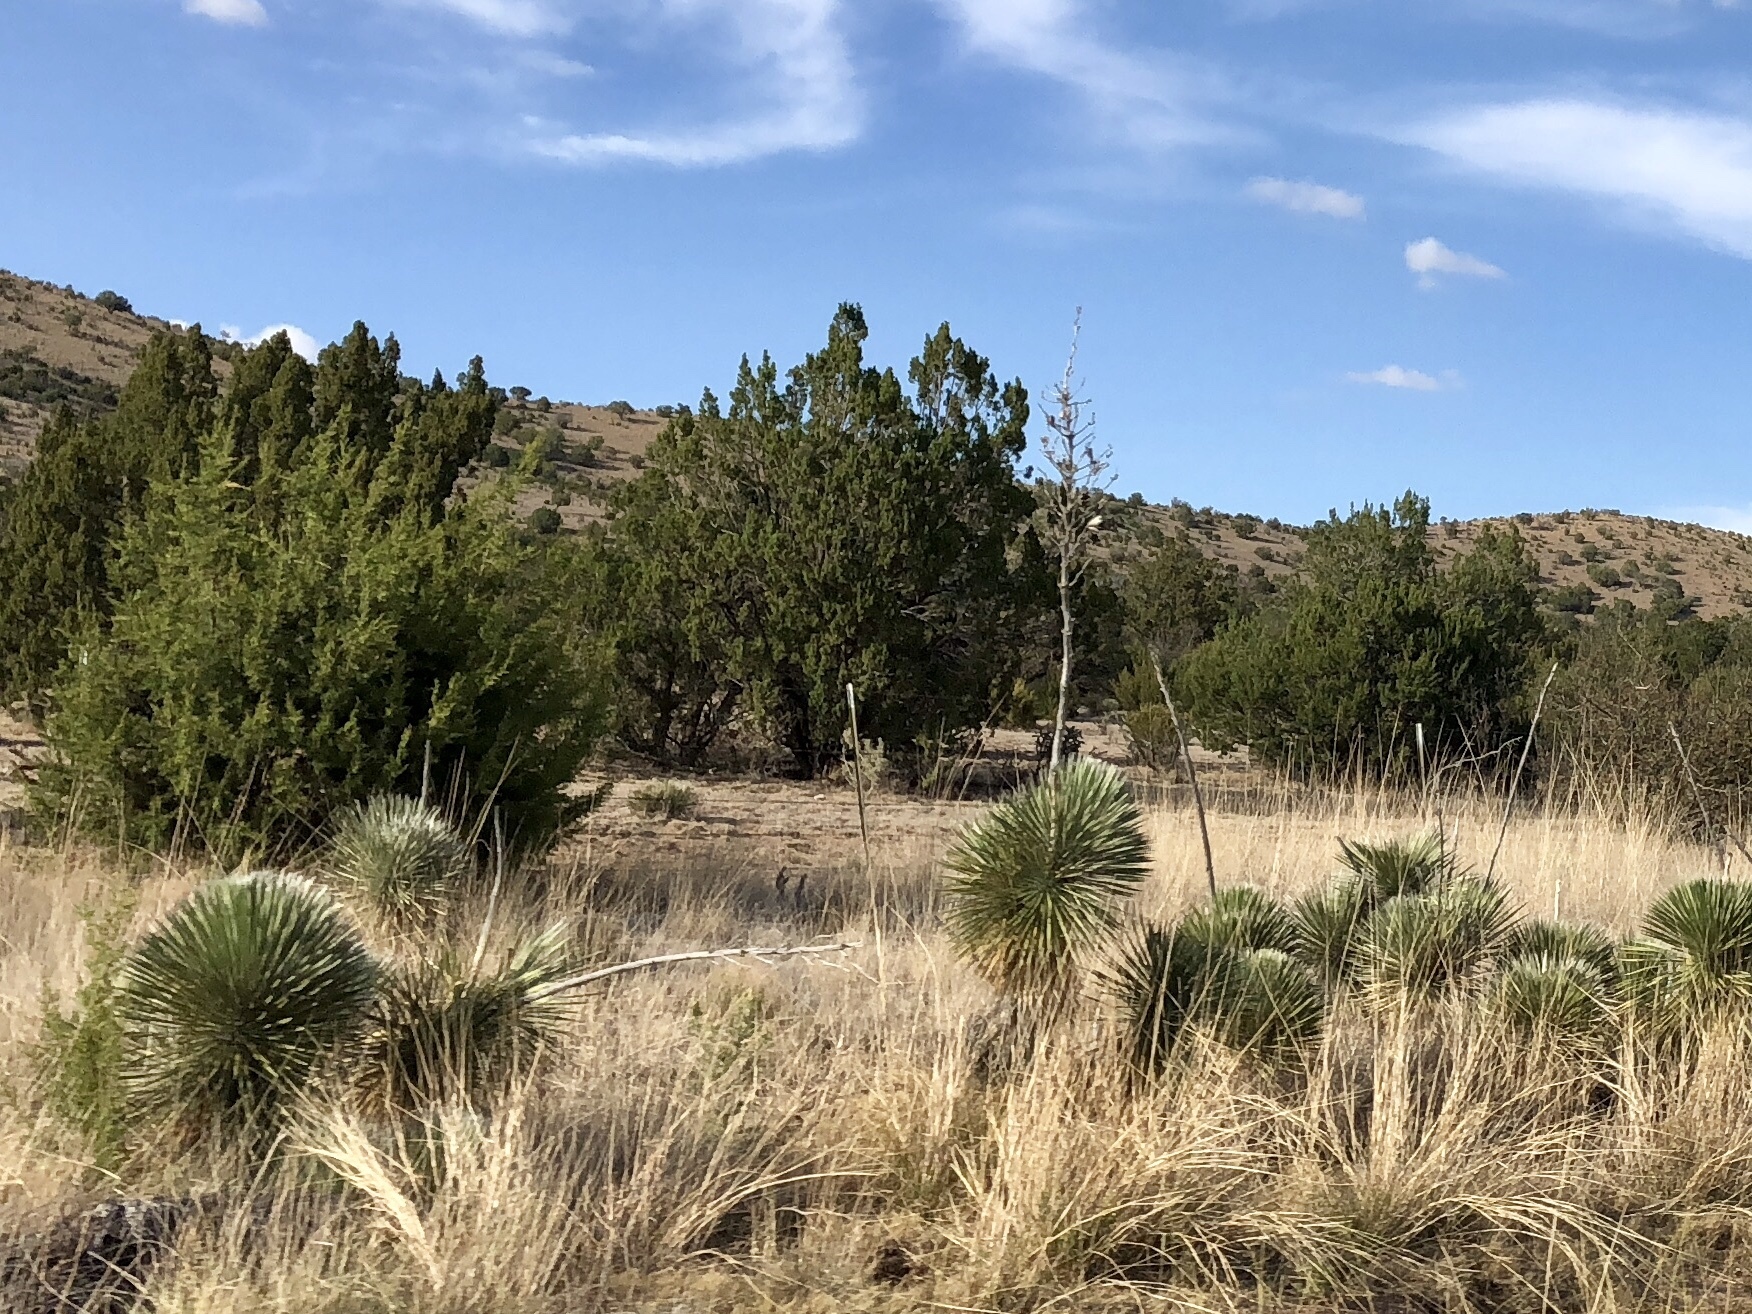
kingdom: Plantae
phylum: Tracheophyta
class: Liliopsida
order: Asparagales
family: Asparagaceae
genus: Yucca
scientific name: Yucca elata
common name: Palmella
